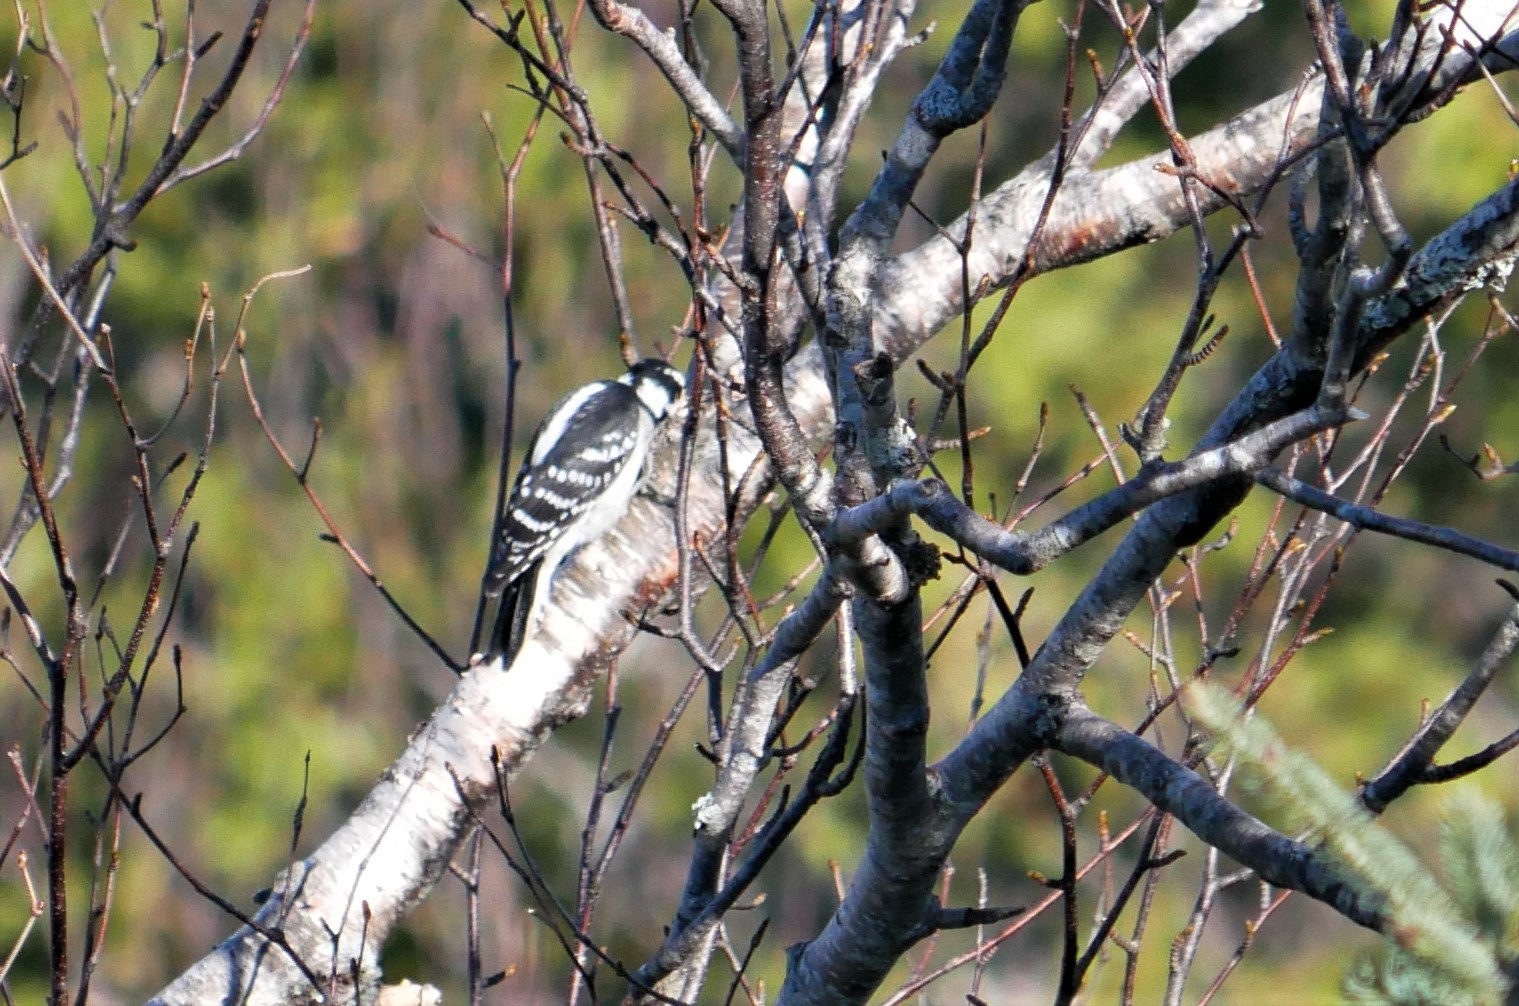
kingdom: Animalia
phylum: Chordata
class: Aves
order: Piciformes
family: Picidae
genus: Dryobates
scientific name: Dryobates pubescens
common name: Downy woodpecker
